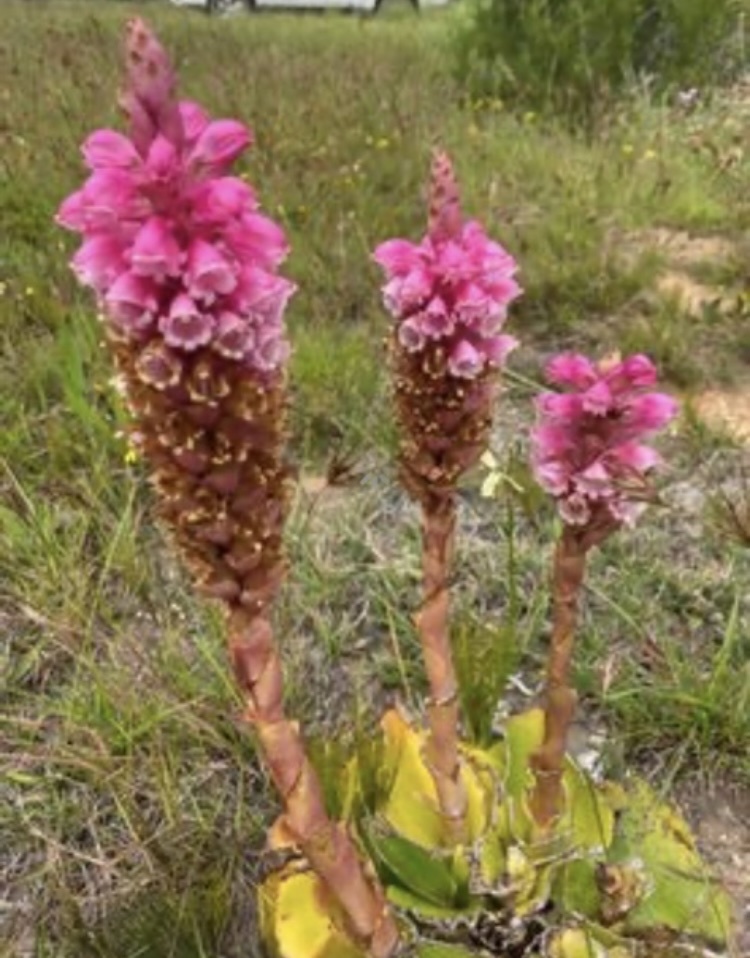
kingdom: Plantae
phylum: Tracheophyta
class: Liliopsida
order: Asparagales
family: Orchidaceae
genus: Satyrium
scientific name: Satyrium carneum
